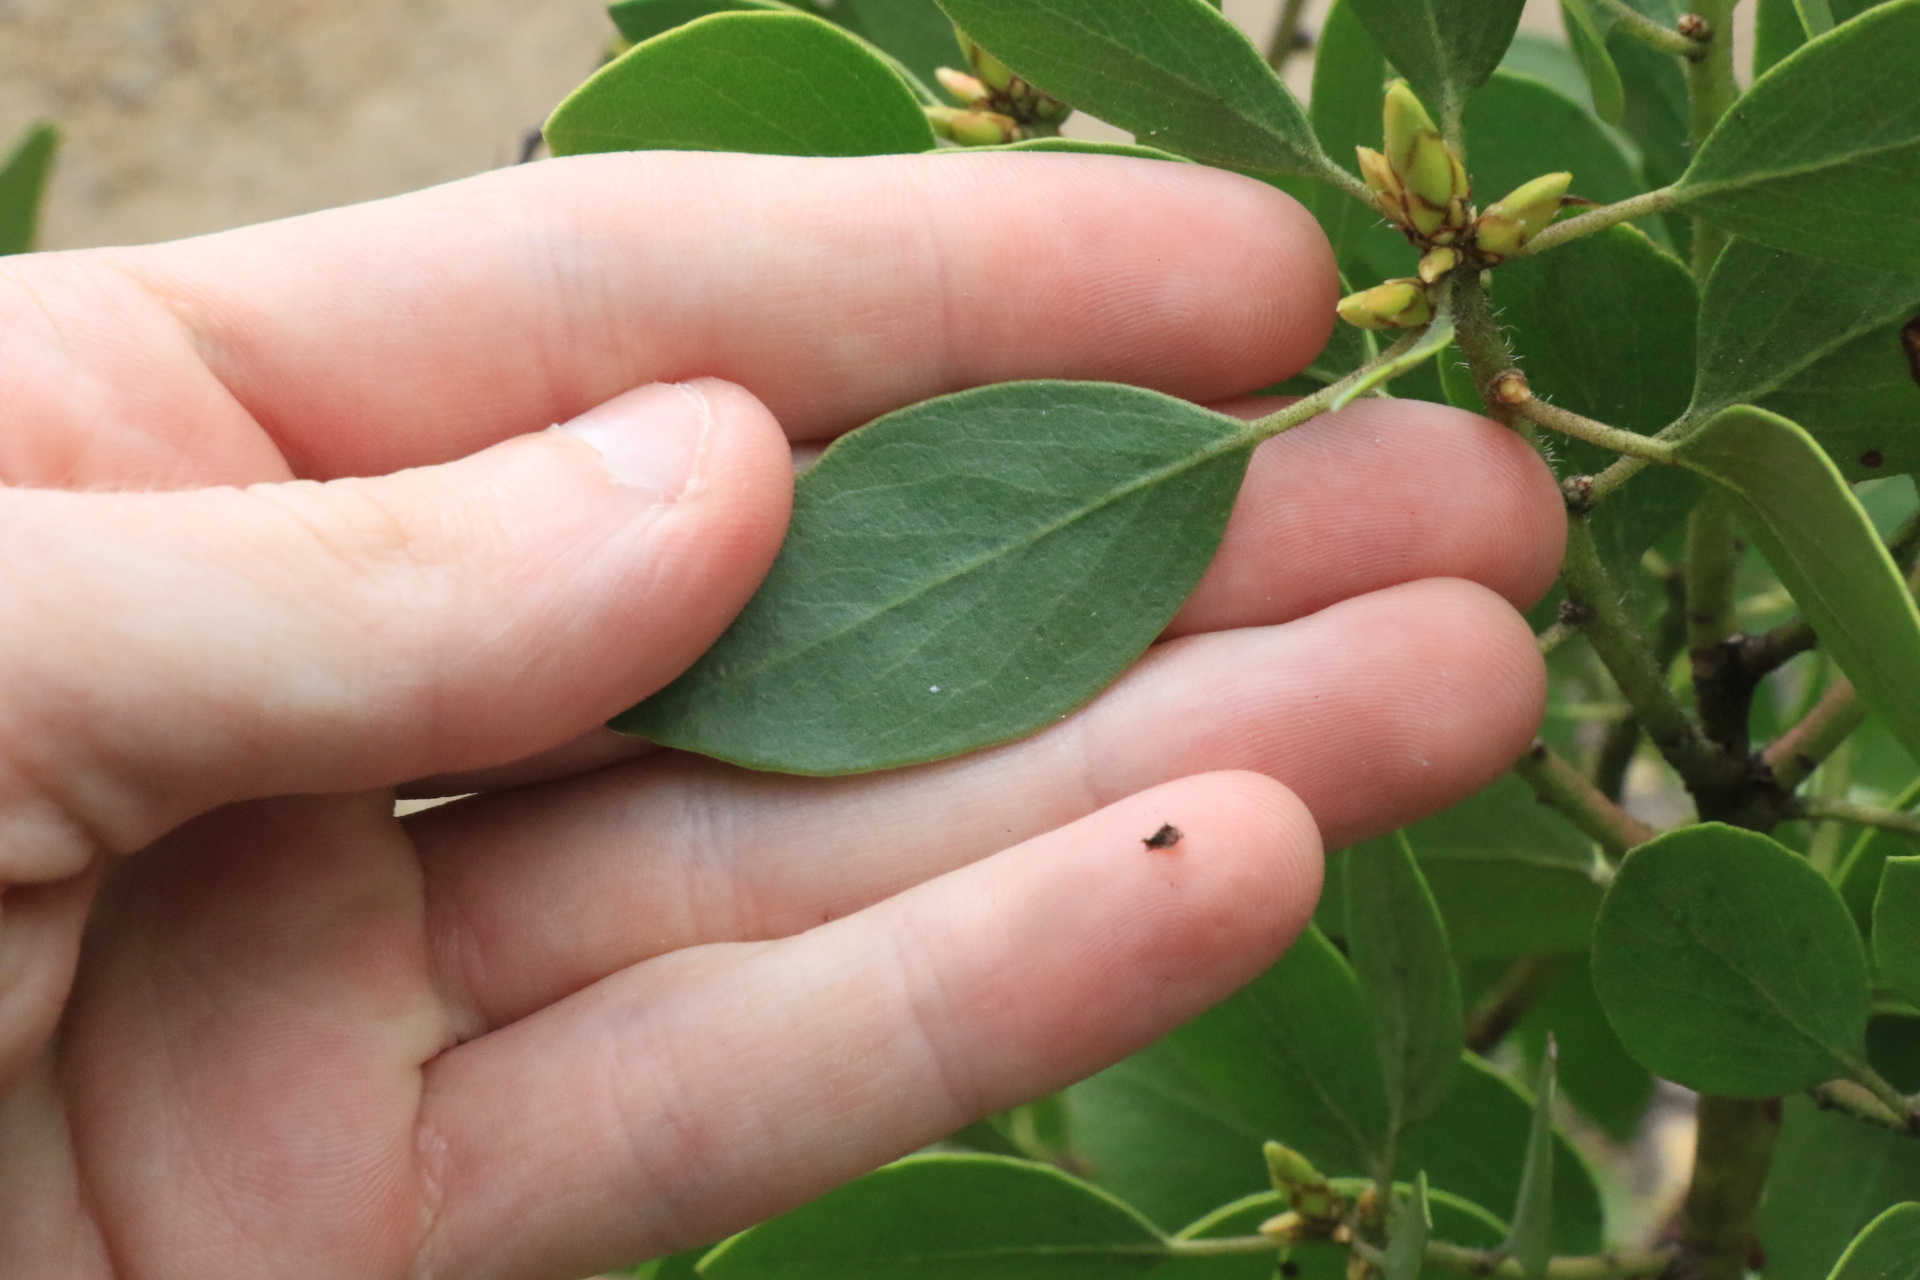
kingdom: Plantae
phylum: Tracheophyta
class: Magnoliopsida
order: Ericales
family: Ericaceae
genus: Arctostaphylos
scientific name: Arctostaphylos patula
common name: Green-leaf manzanita
